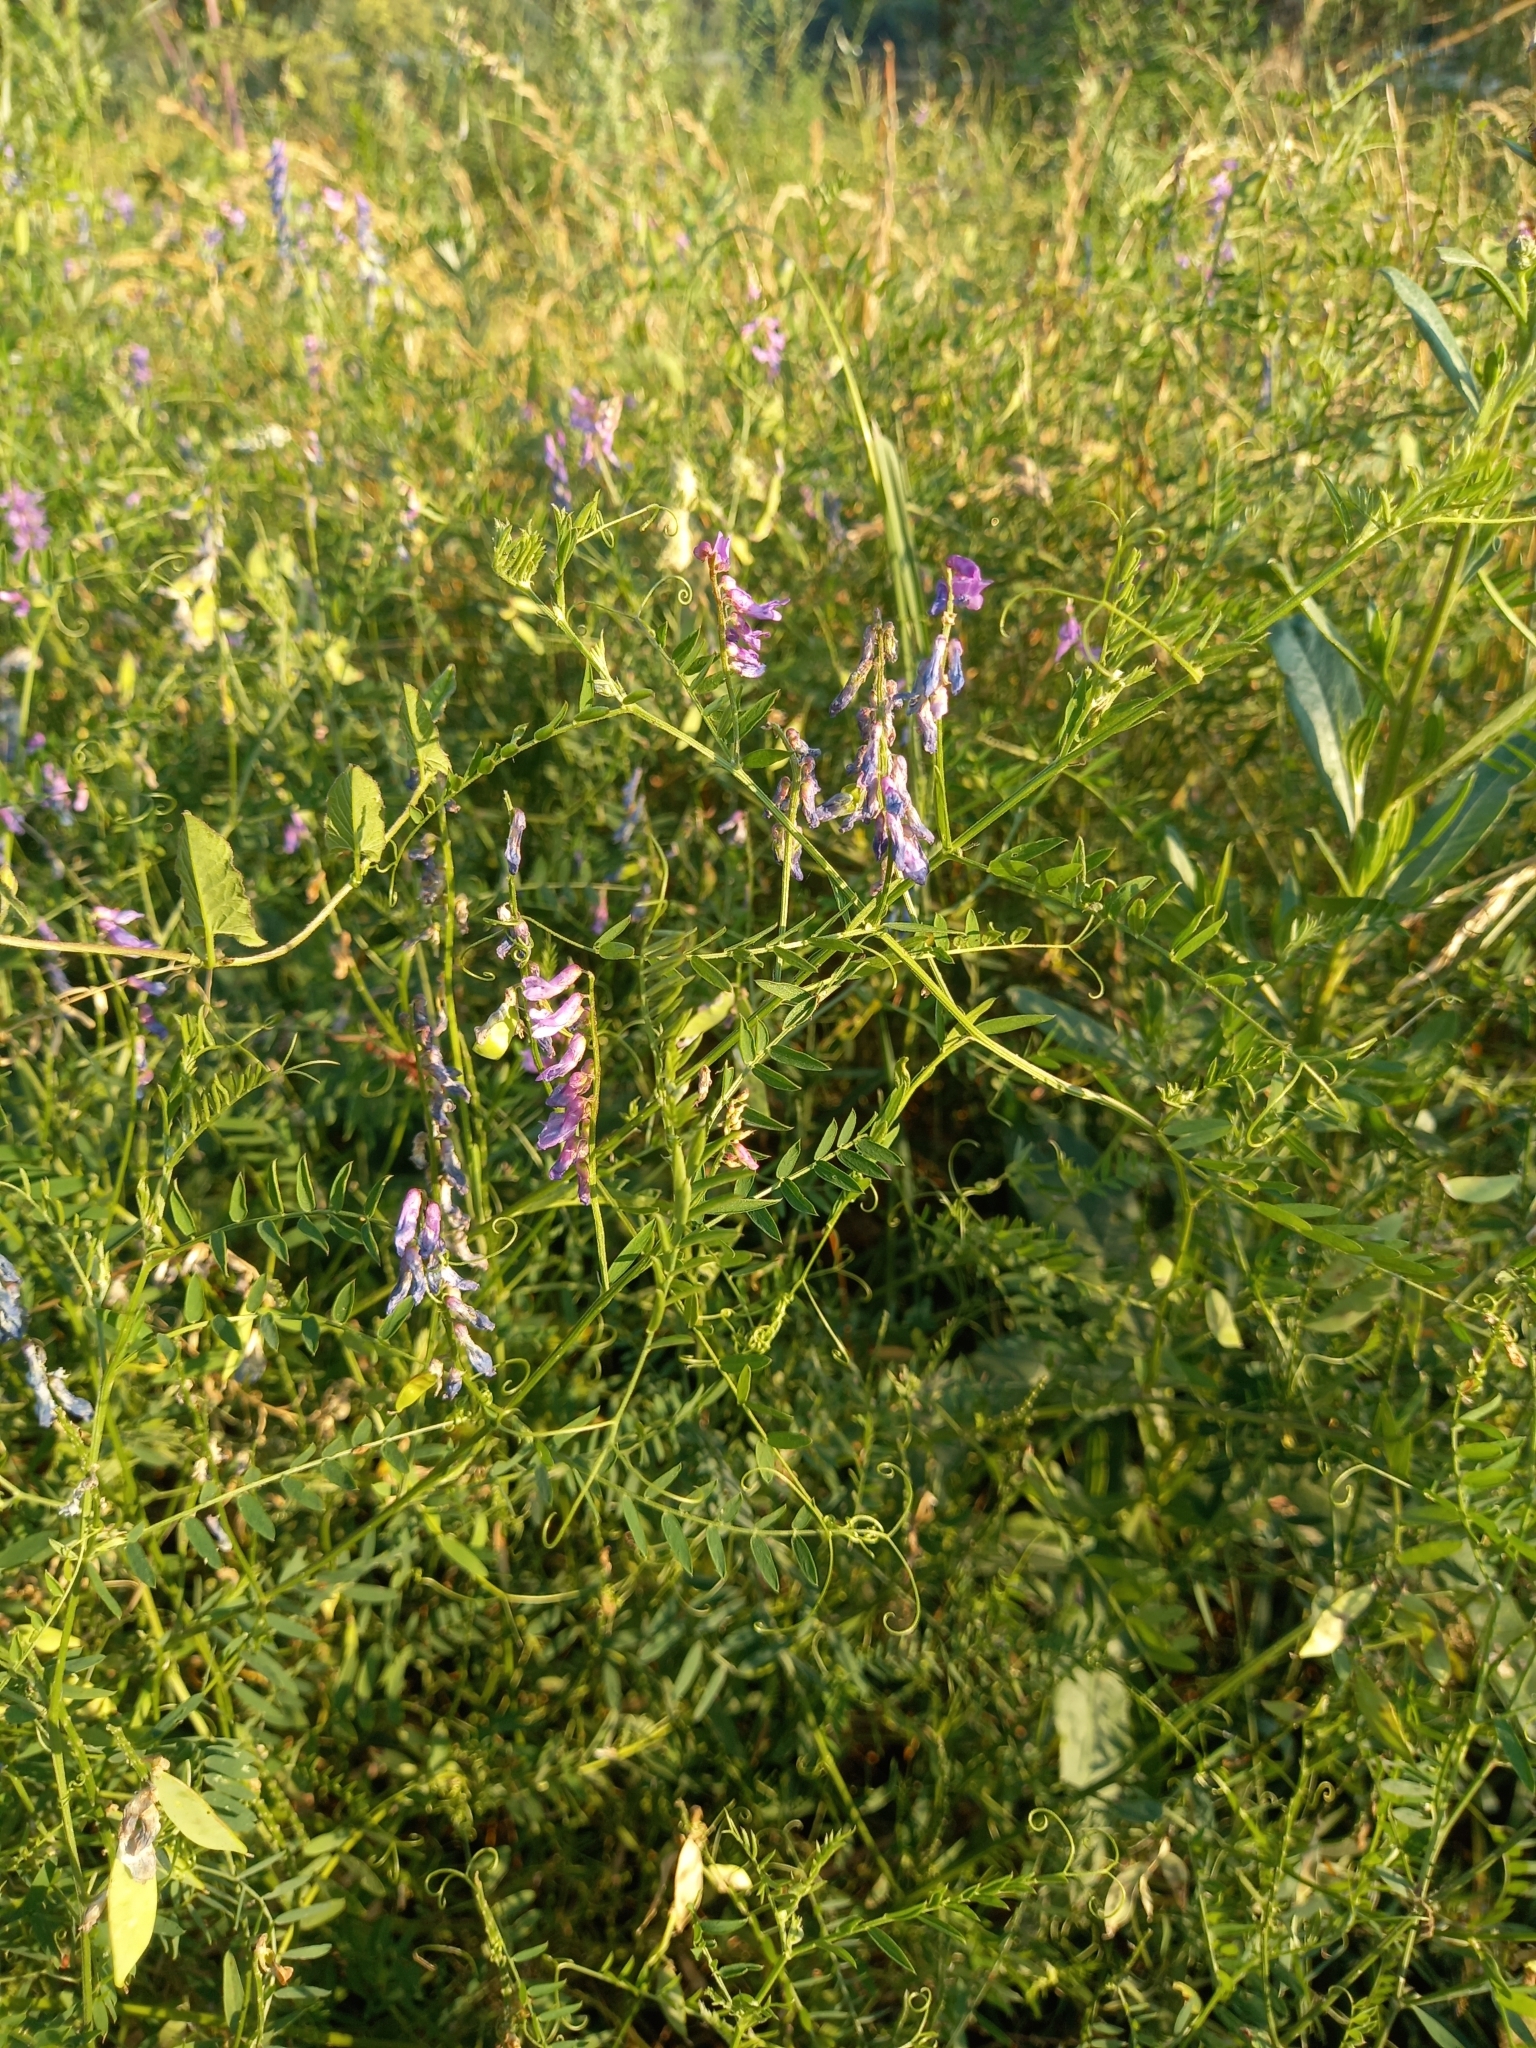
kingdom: Plantae
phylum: Tracheophyta
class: Magnoliopsida
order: Fabales
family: Fabaceae
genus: Vicia
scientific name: Vicia cracca
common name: Bird vetch
